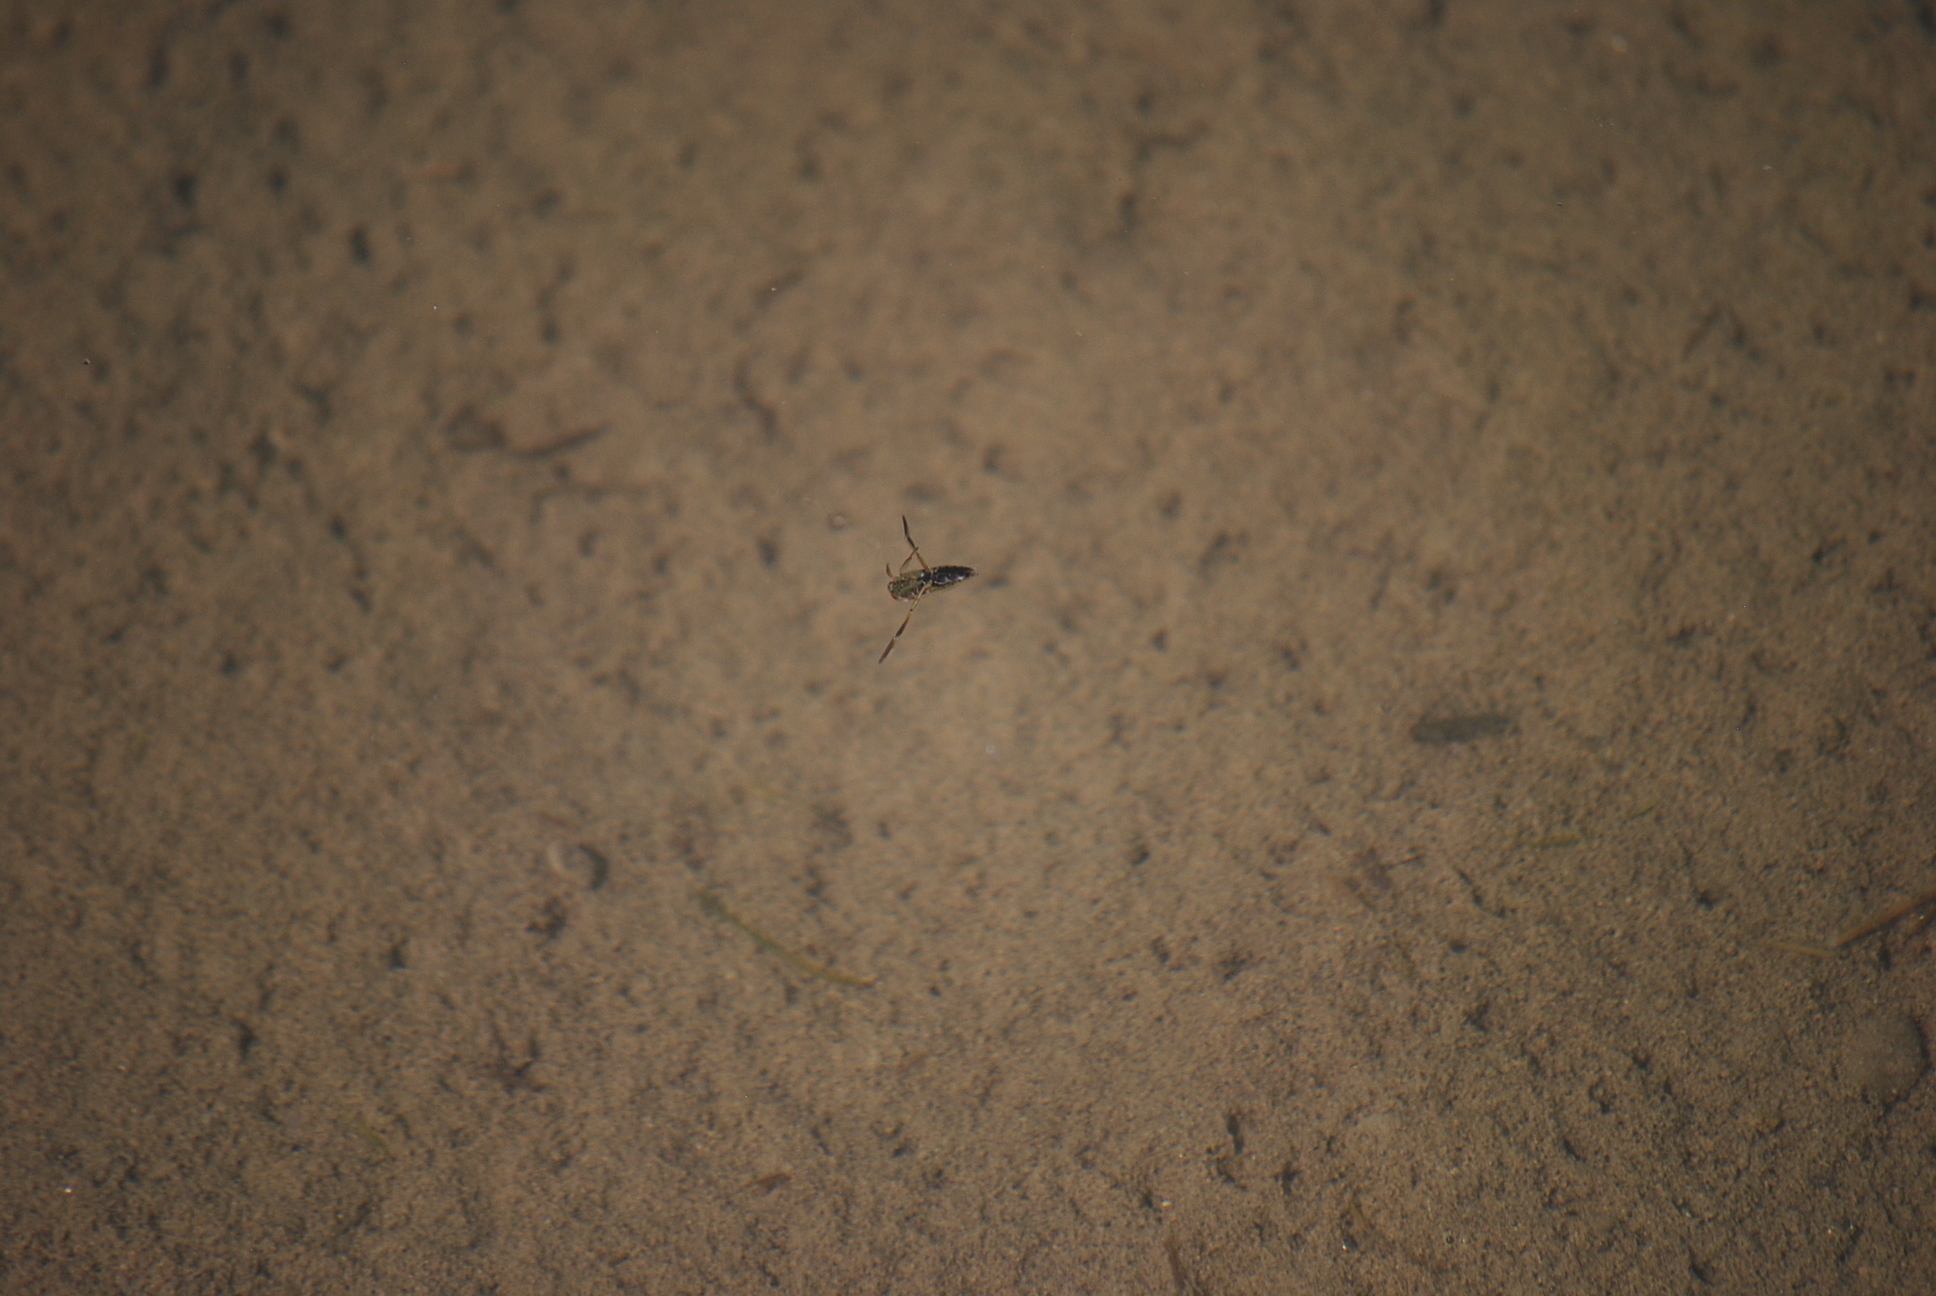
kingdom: Animalia
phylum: Arthropoda
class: Insecta
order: Hemiptera
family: Notonectidae
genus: Notonecta
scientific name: Notonecta
